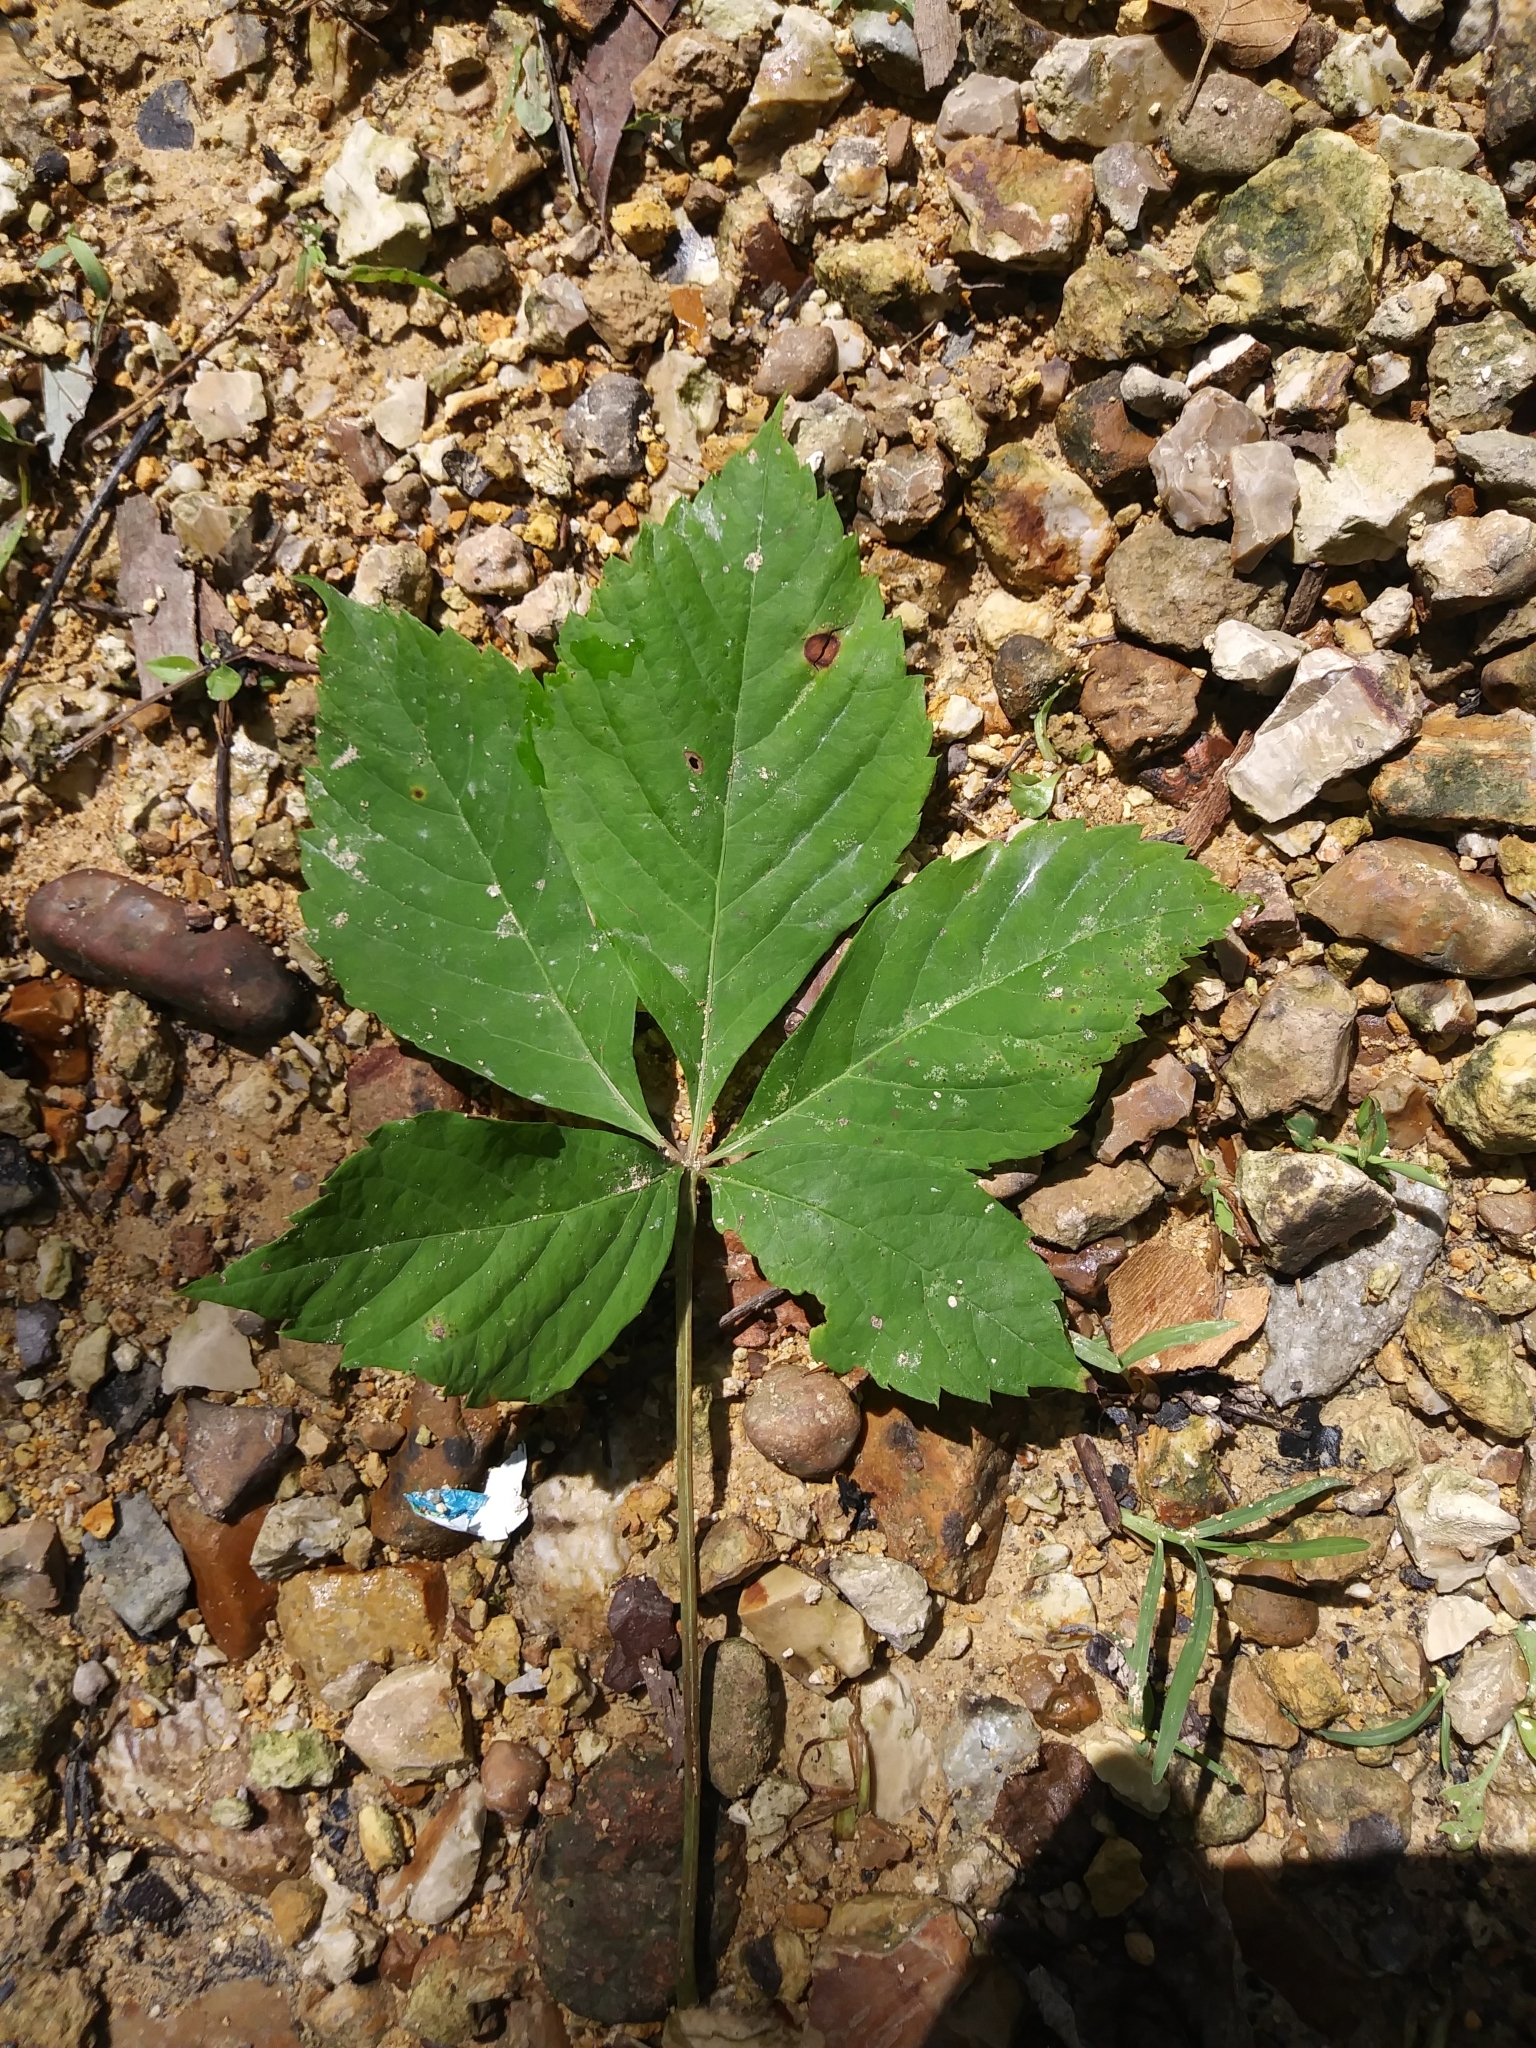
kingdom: Plantae
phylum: Tracheophyta
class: Magnoliopsida
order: Vitales
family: Vitaceae
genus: Parthenocissus
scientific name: Parthenocissus quinquefolia
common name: Virginia-creeper
